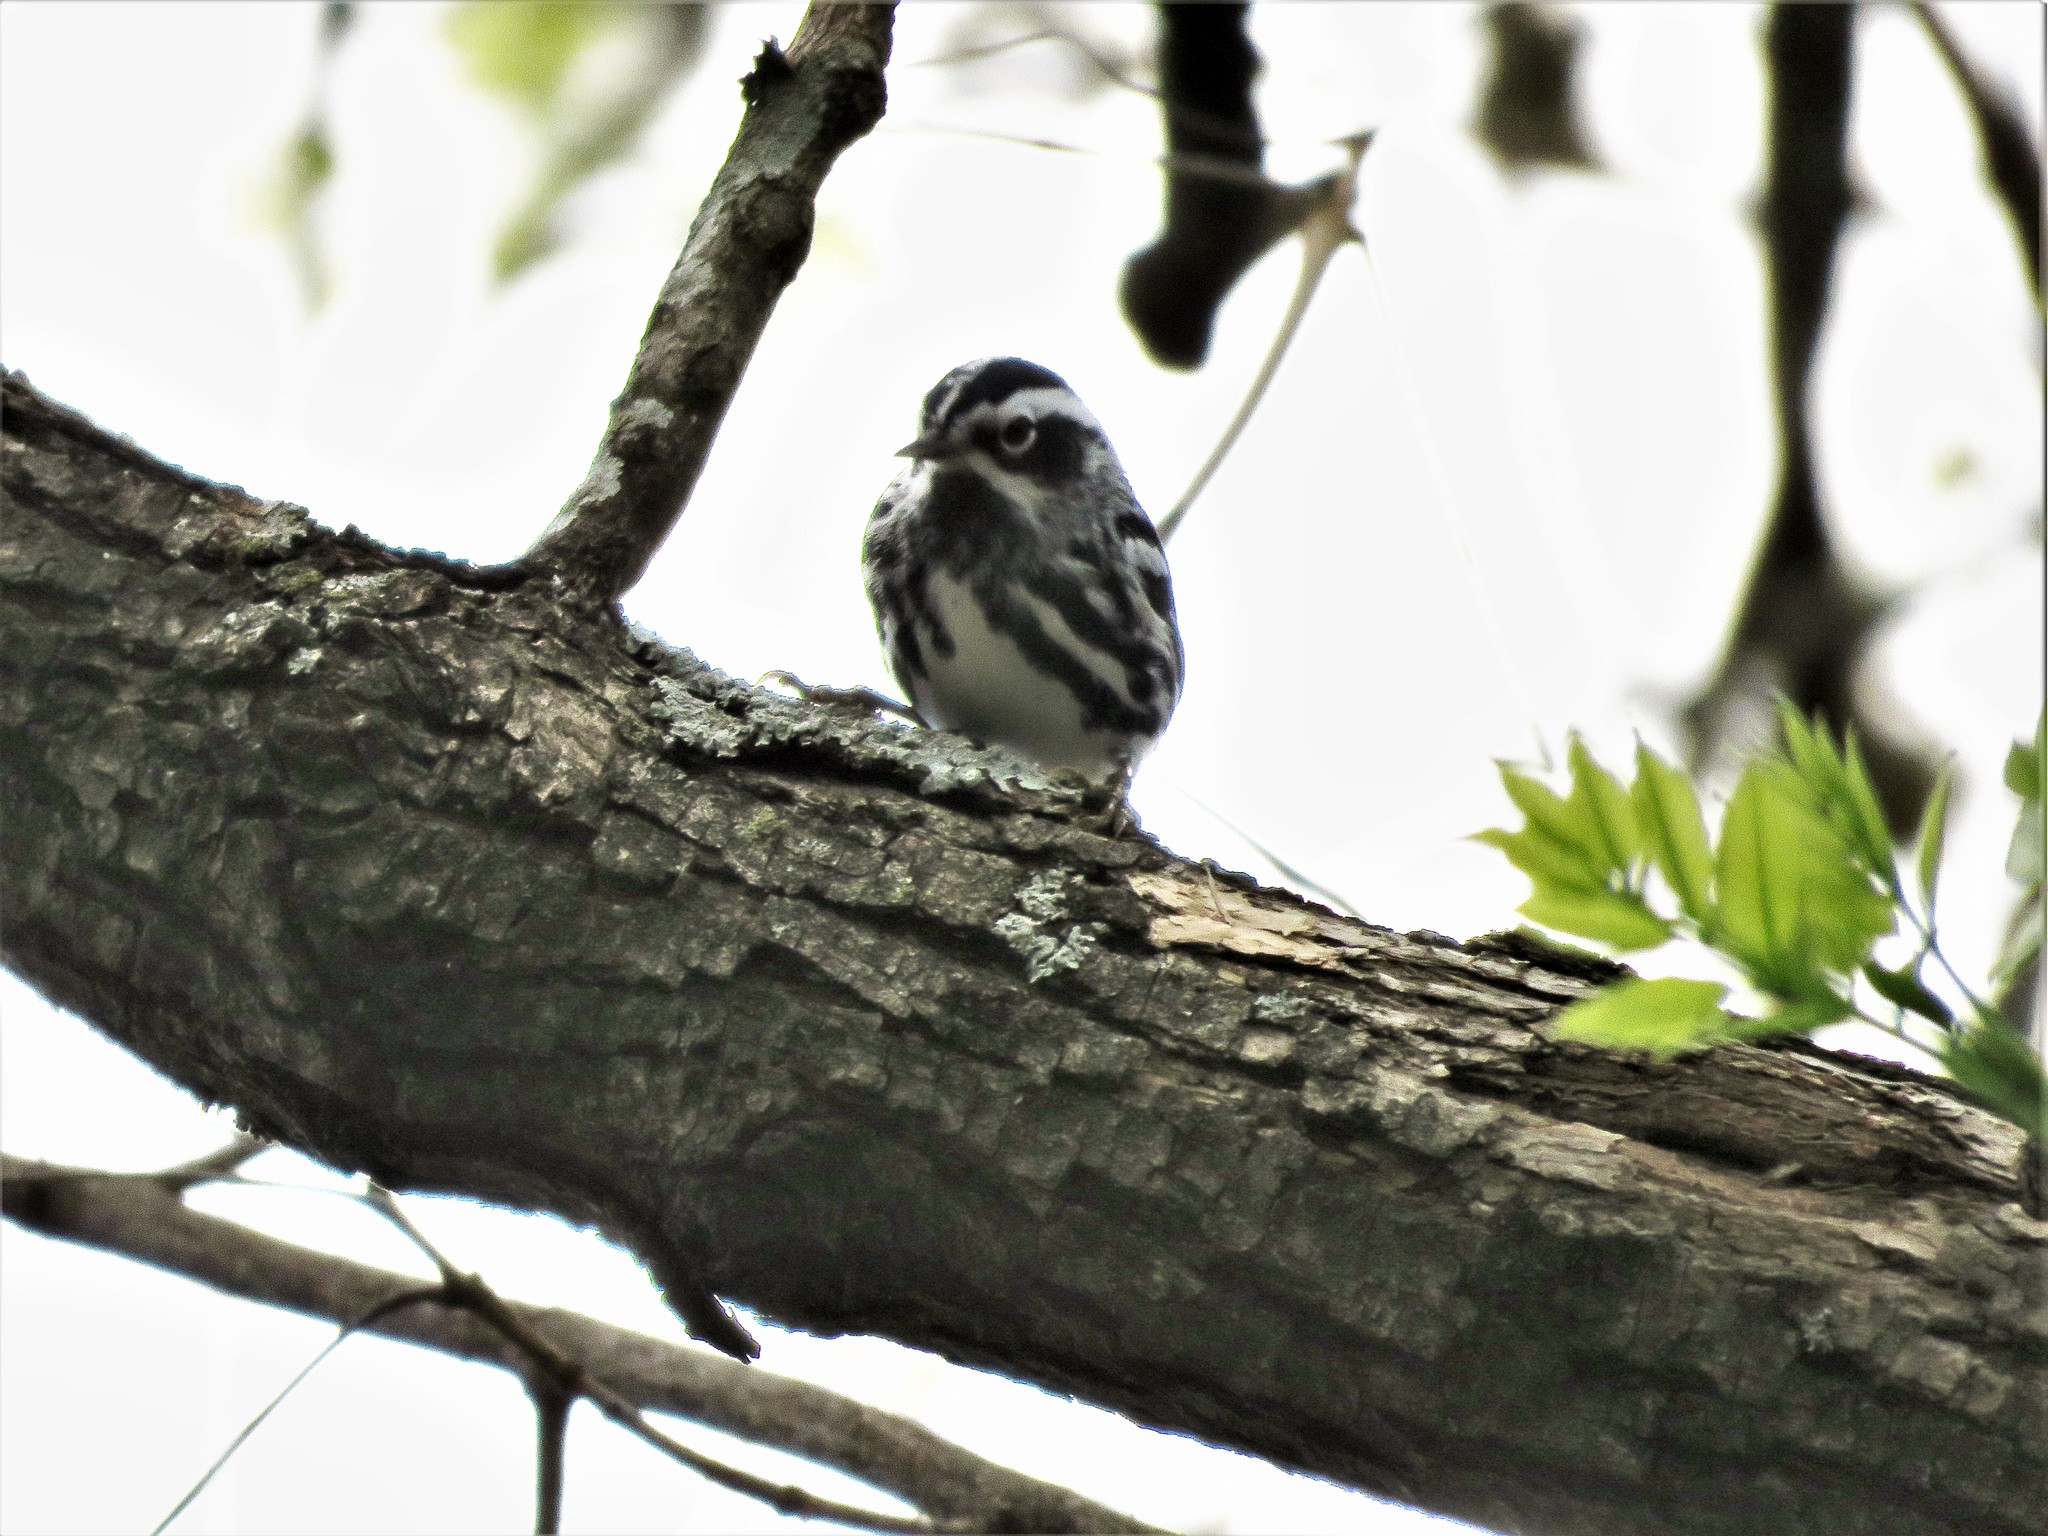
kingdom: Animalia
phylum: Chordata
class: Aves
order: Passeriformes
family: Parulidae
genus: Mniotilta
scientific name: Mniotilta varia
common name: Black-and-white warbler
